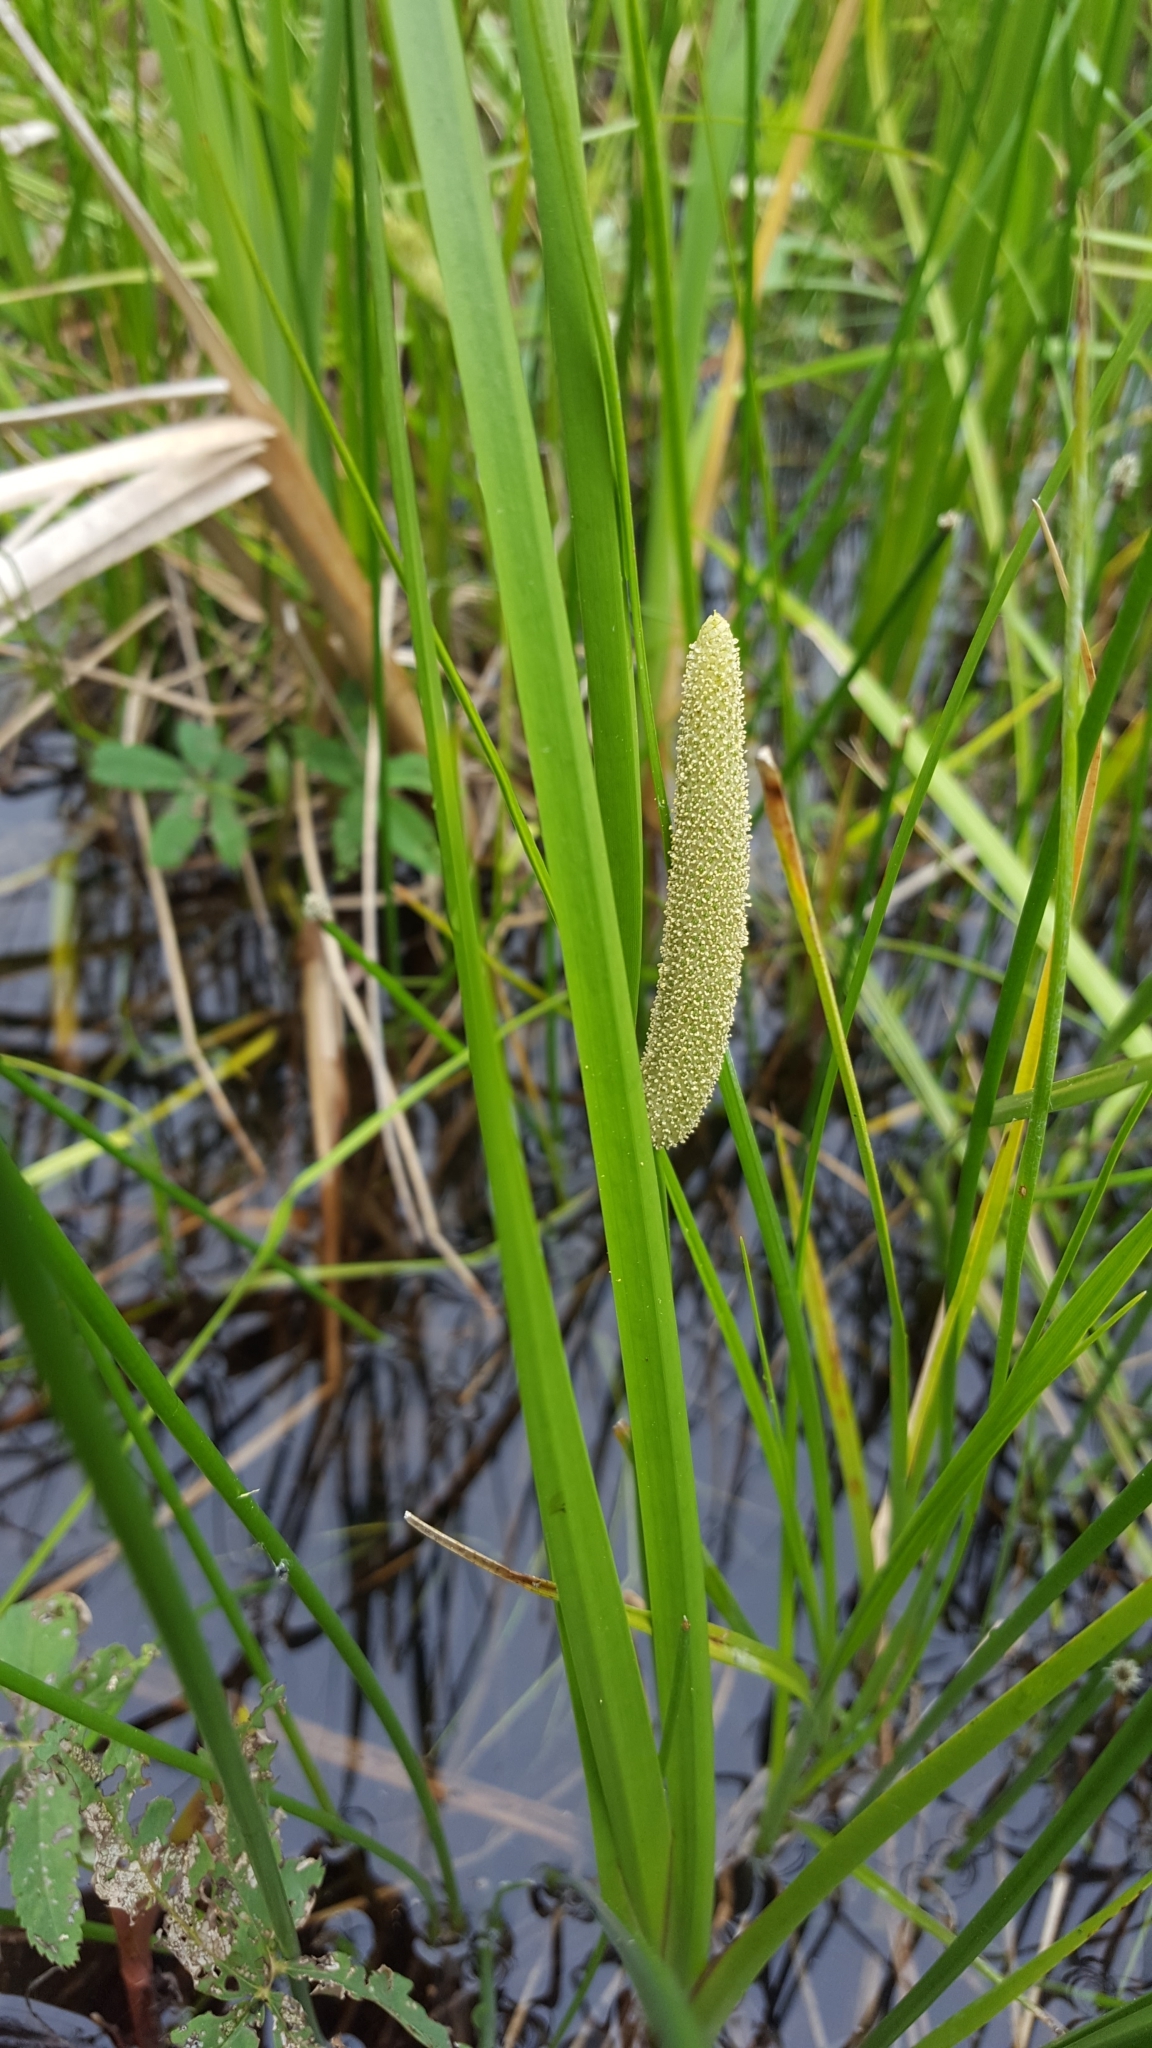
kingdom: Plantae
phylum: Tracheophyta
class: Liliopsida
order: Acorales
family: Acoraceae
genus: Acorus
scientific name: Acorus calamus
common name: Sweet-flag
